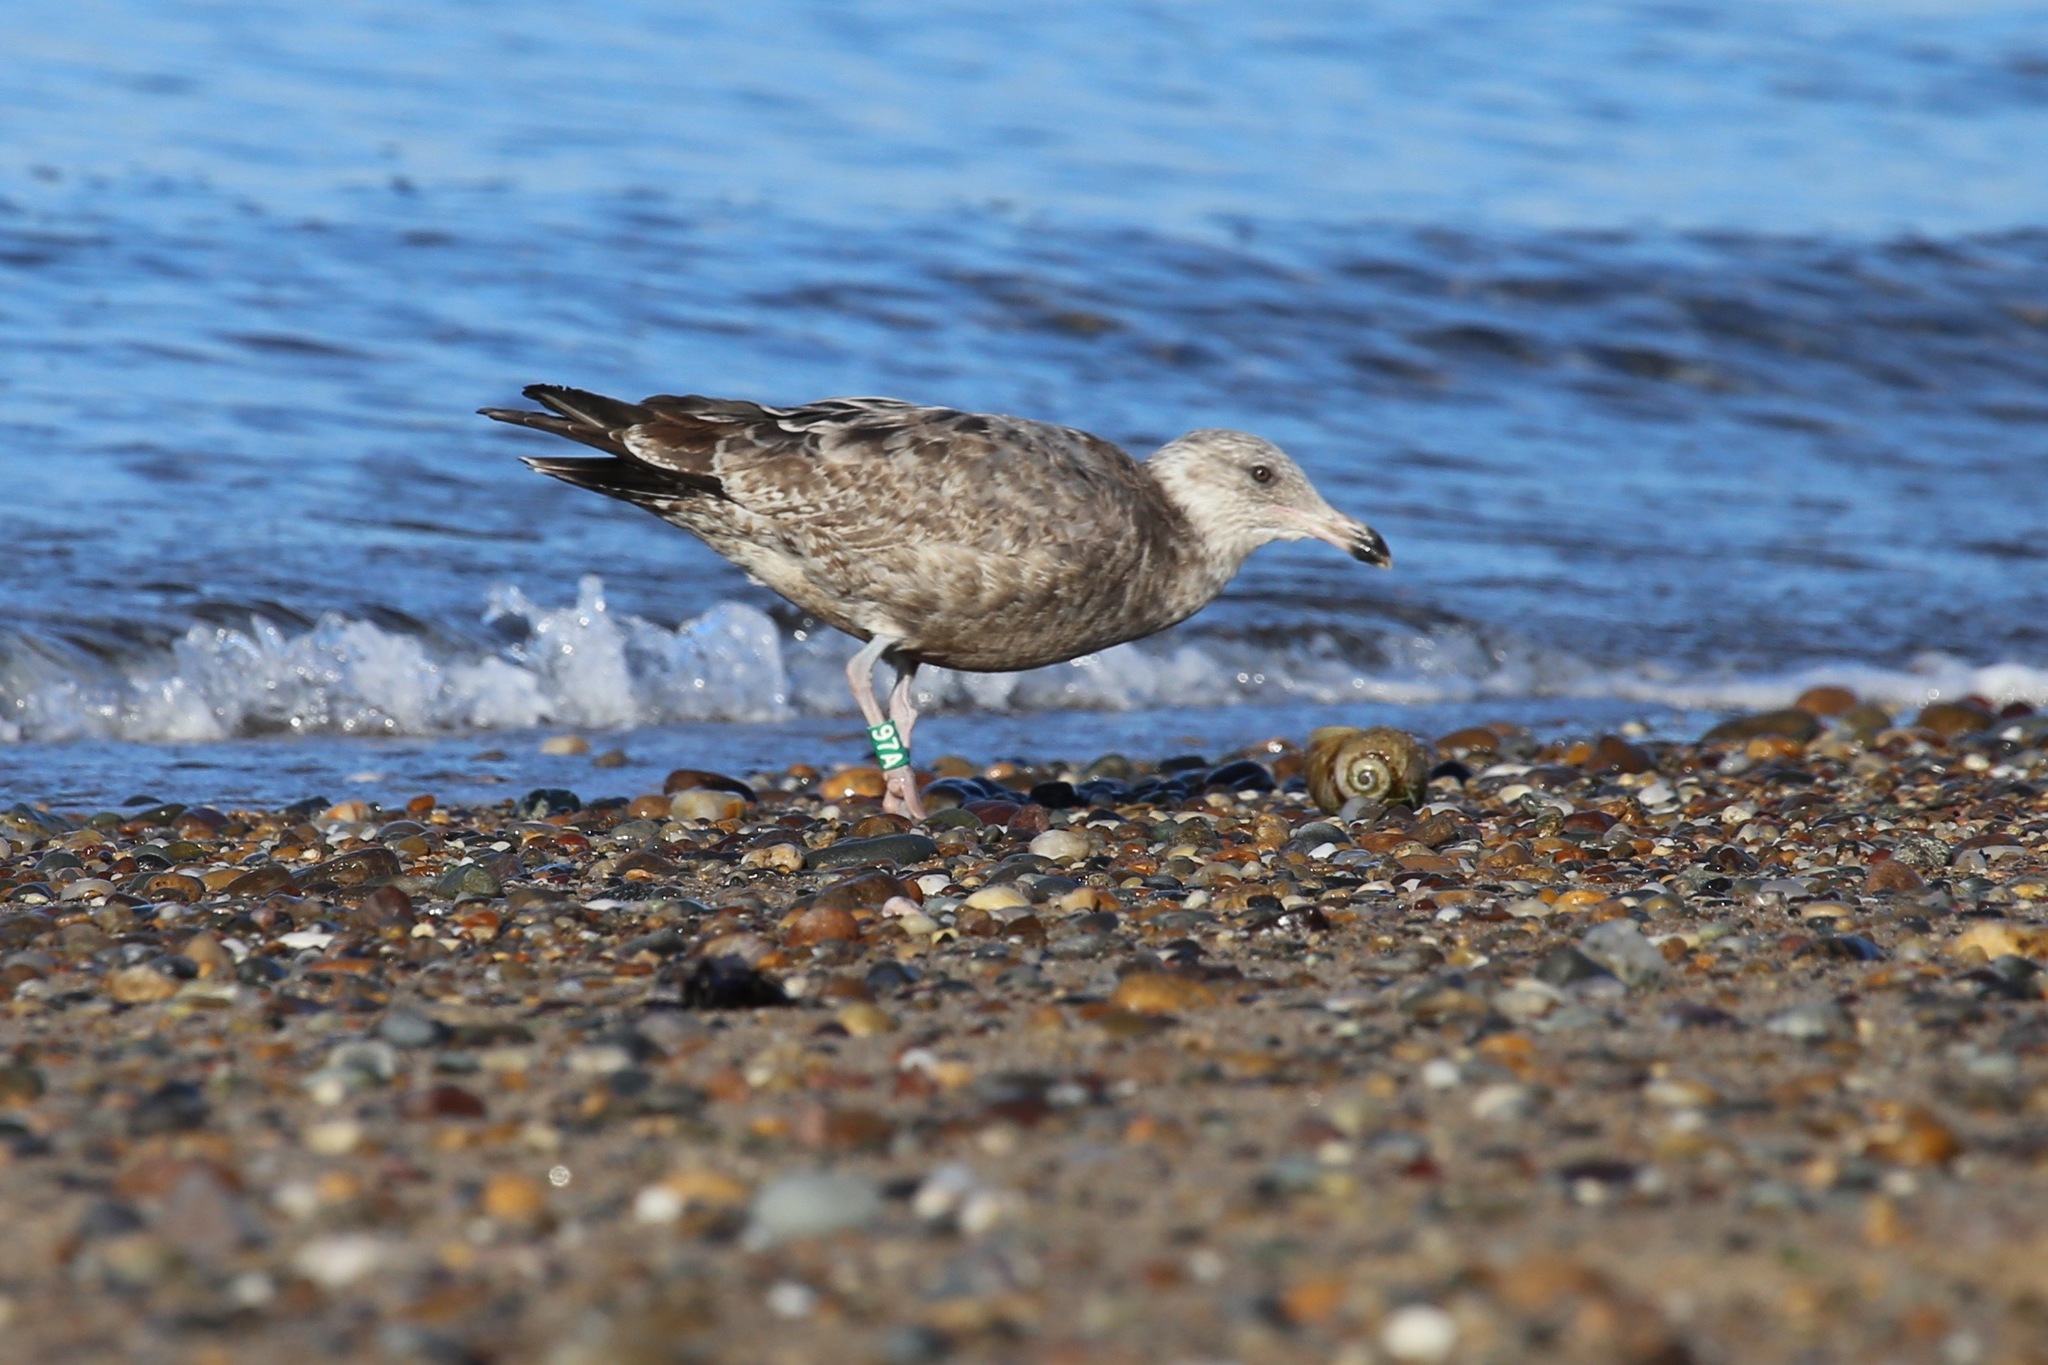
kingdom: Animalia
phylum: Chordata
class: Aves
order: Charadriiformes
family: Laridae
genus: Larus
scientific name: Larus argentatus
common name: Herring gull
